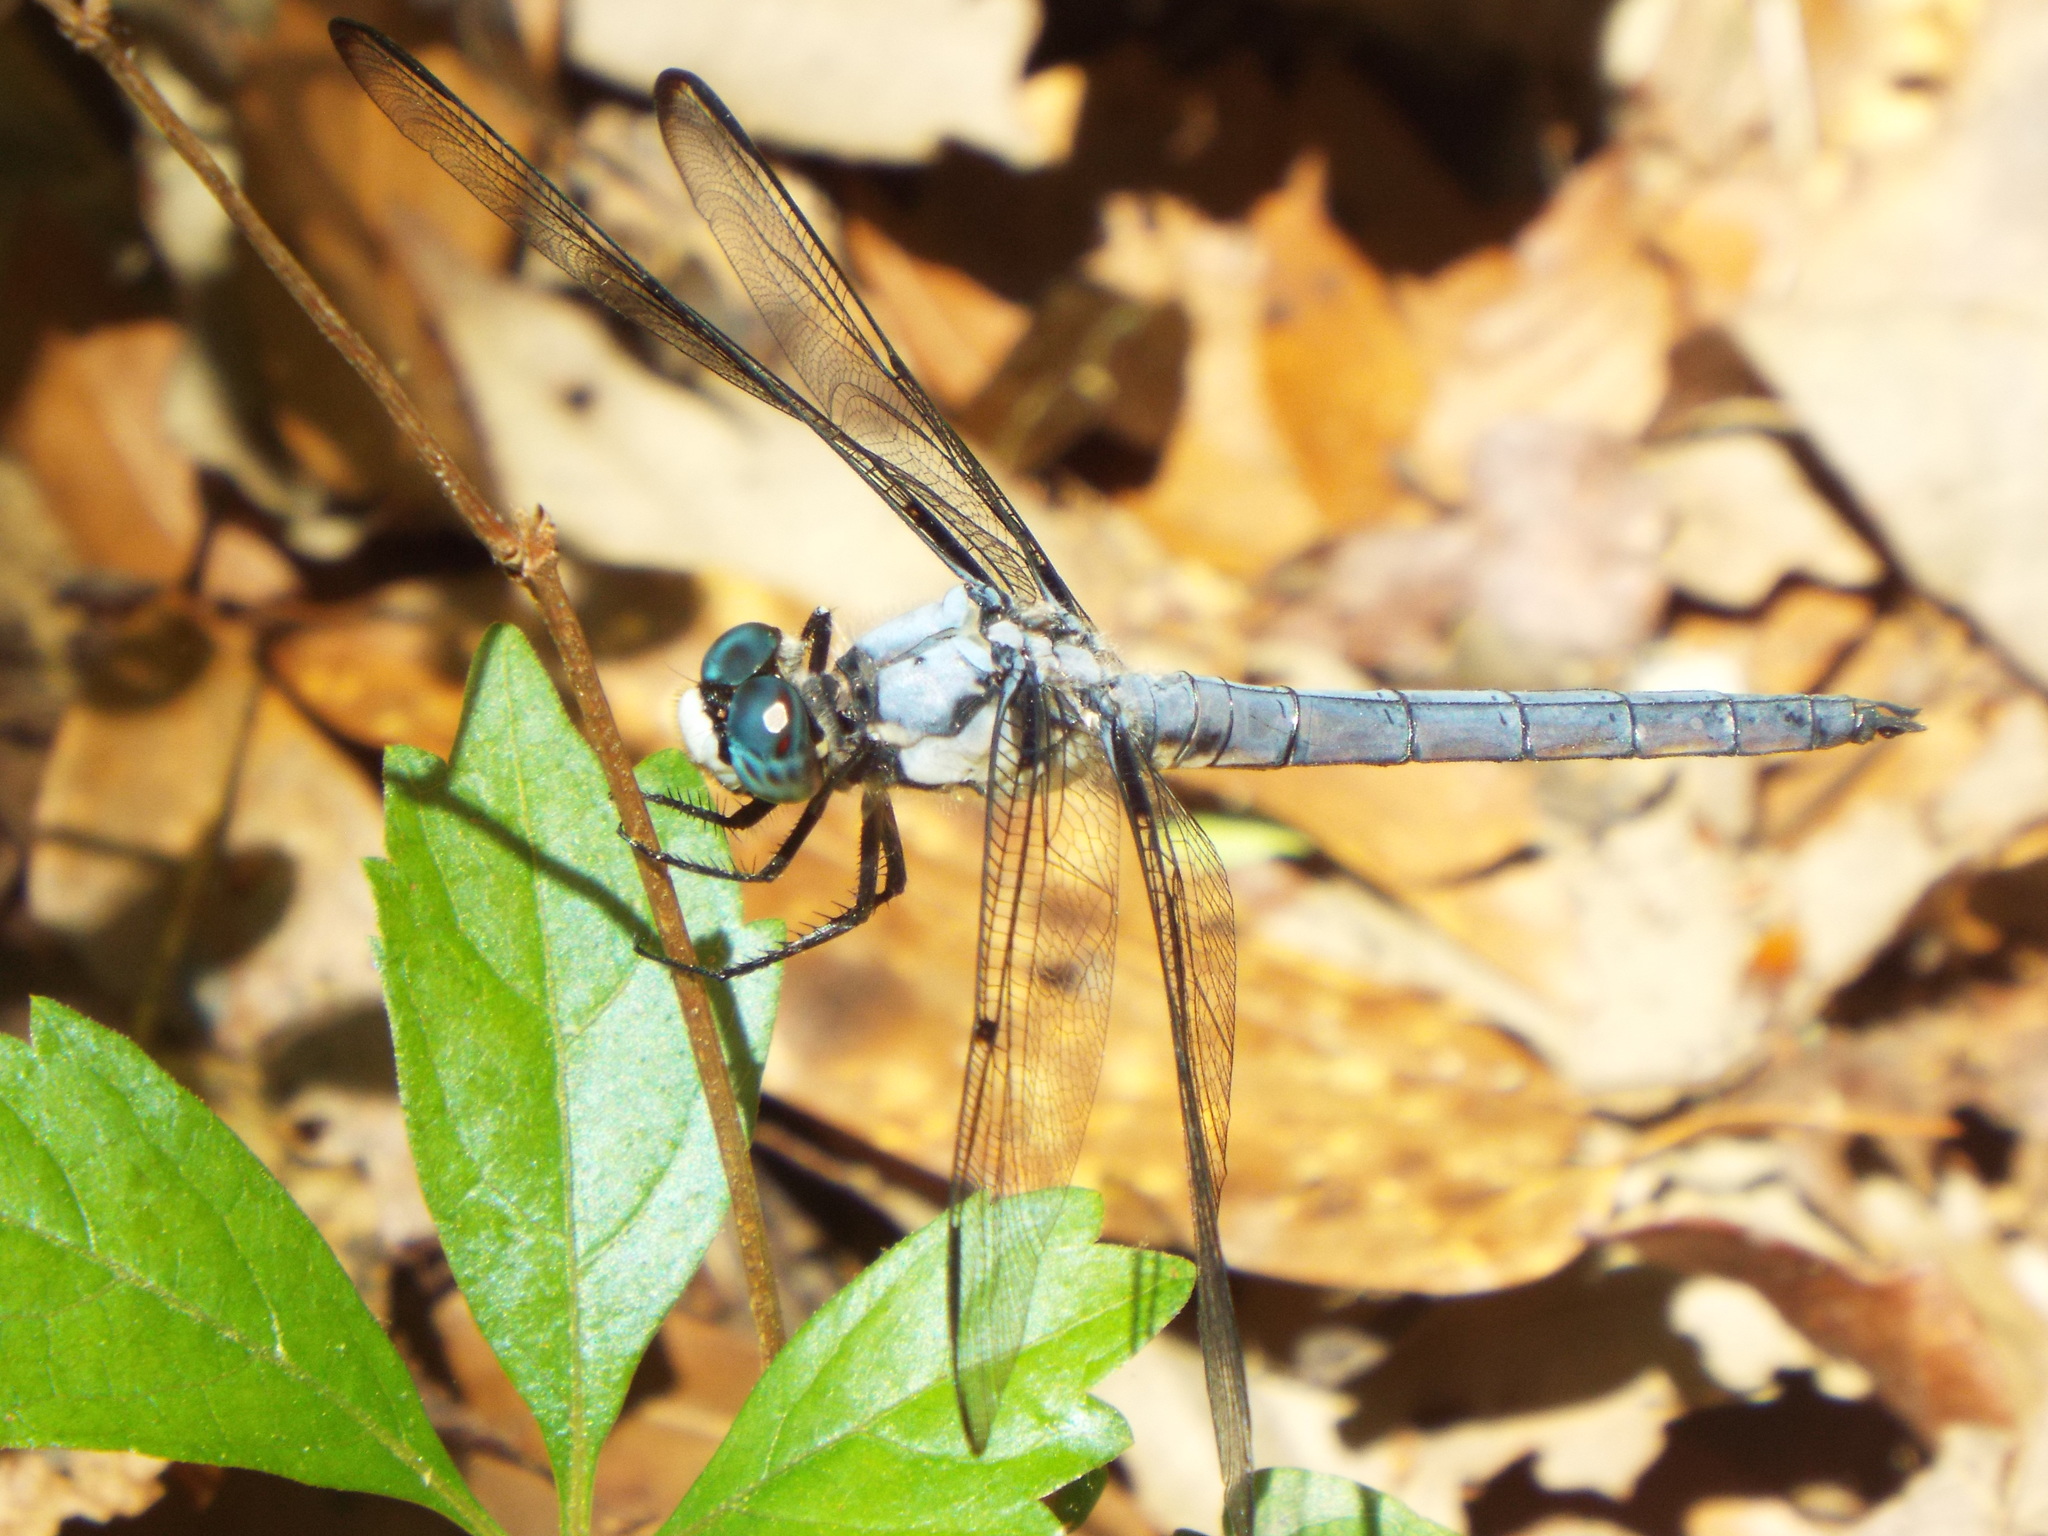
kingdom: Animalia
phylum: Arthropoda
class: Insecta
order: Odonata
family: Libellulidae
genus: Libellula
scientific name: Libellula vibrans
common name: Great blue skimmer
